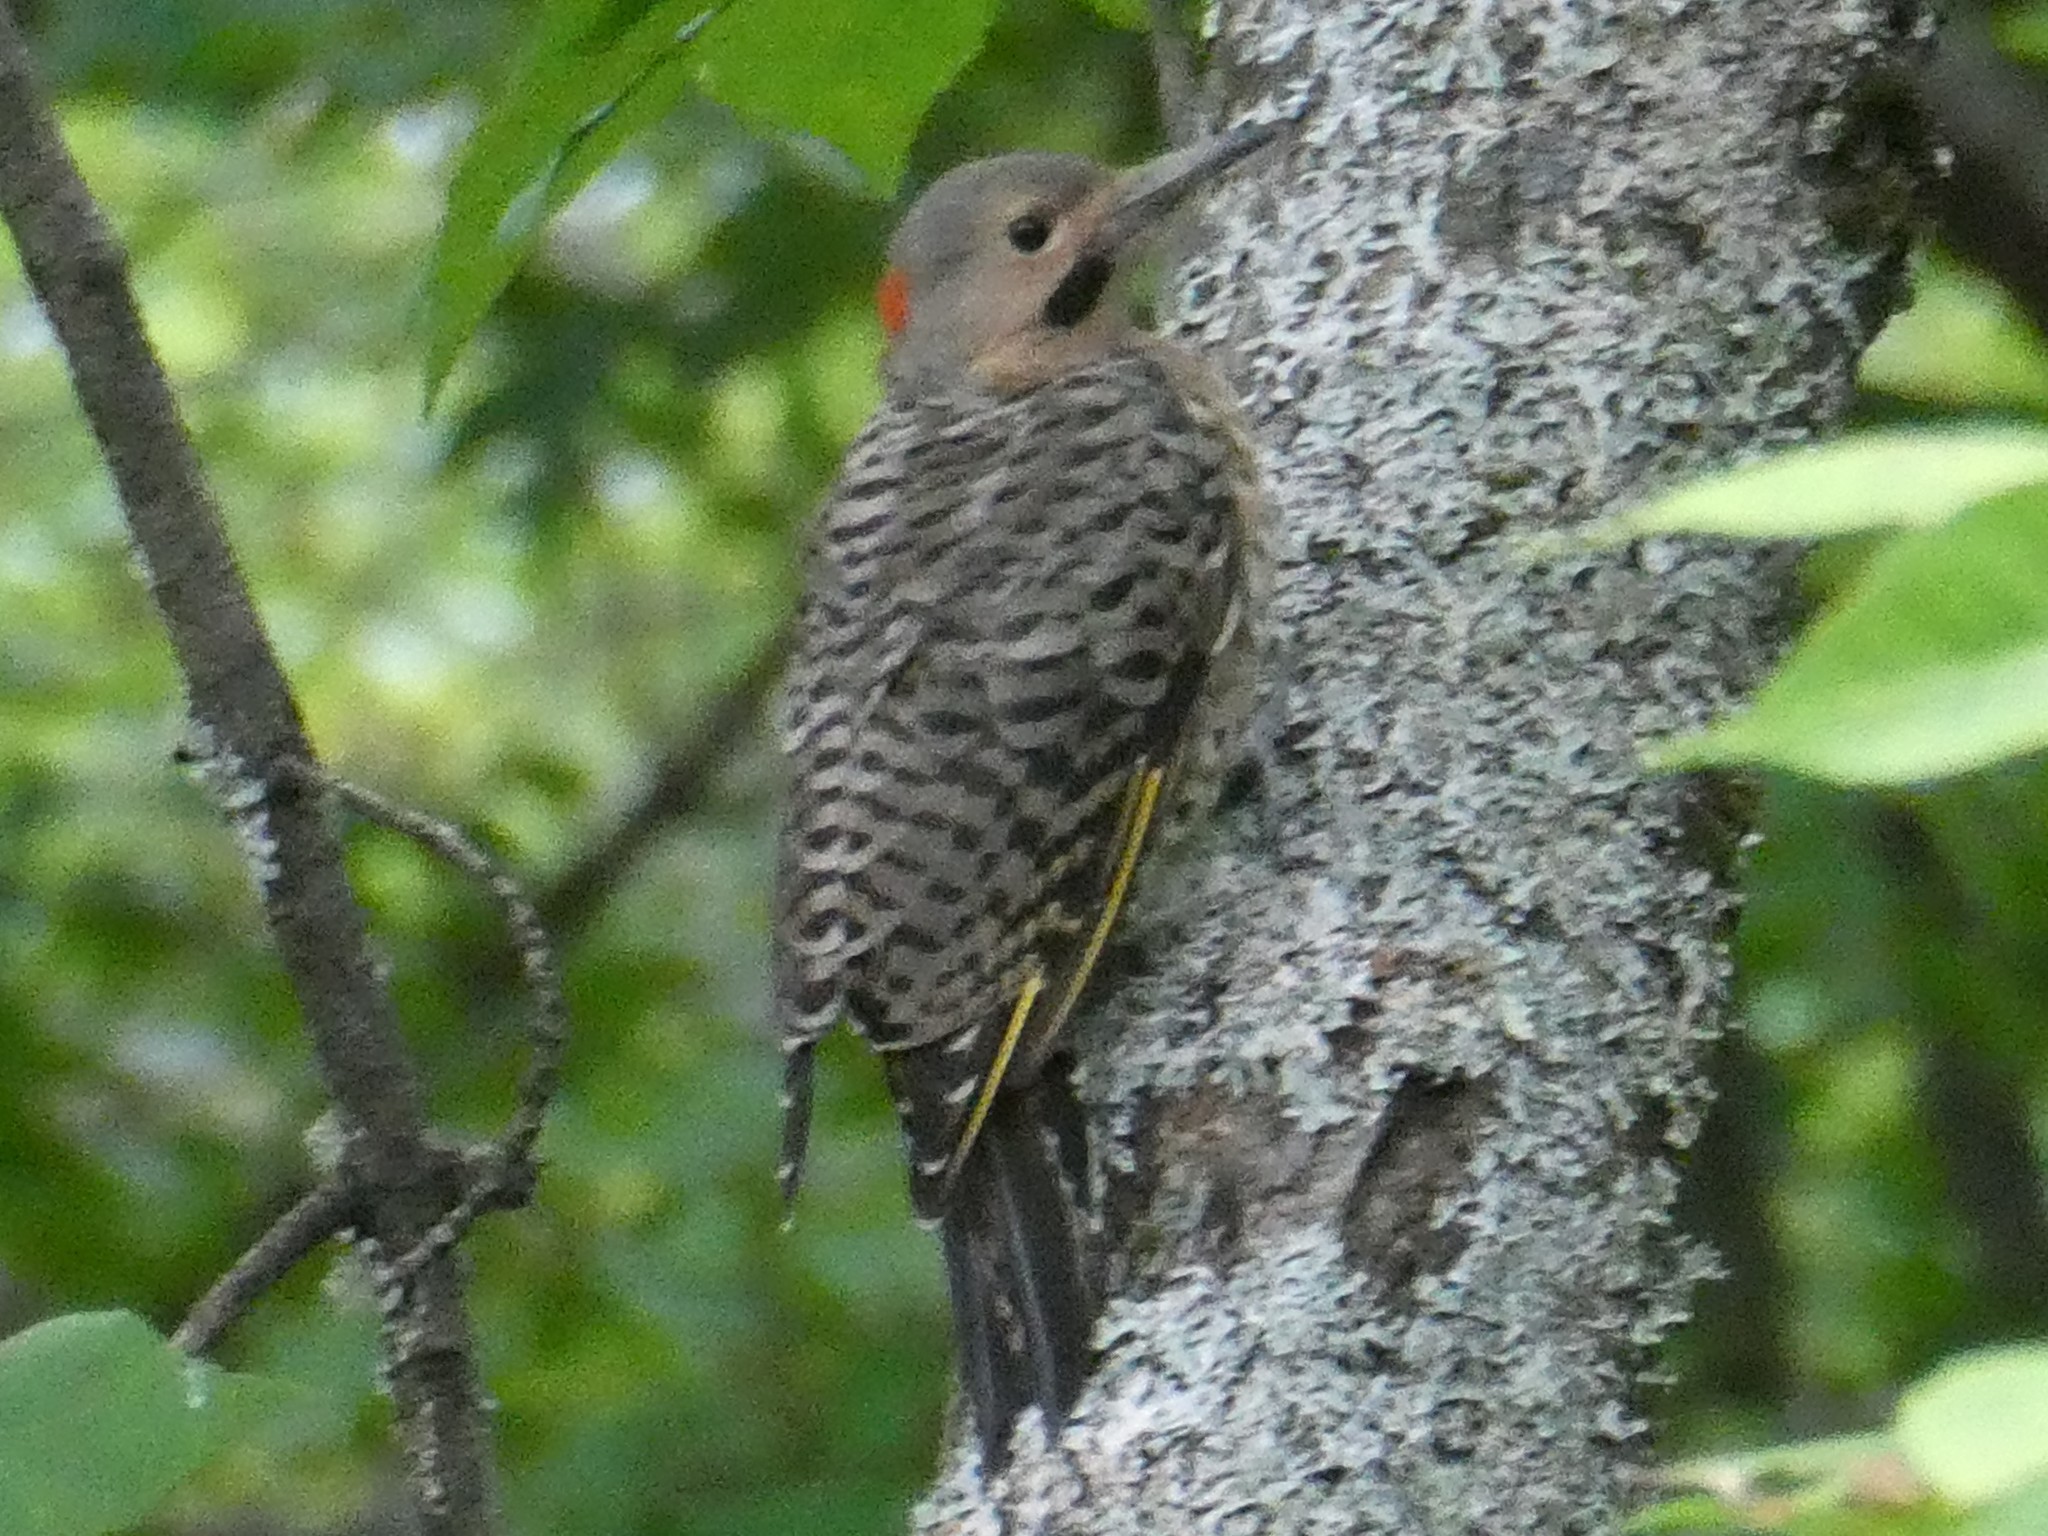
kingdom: Animalia
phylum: Chordata
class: Aves
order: Piciformes
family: Picidae
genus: Colaptes
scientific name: Colaptes auratus
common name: Northern flicker
